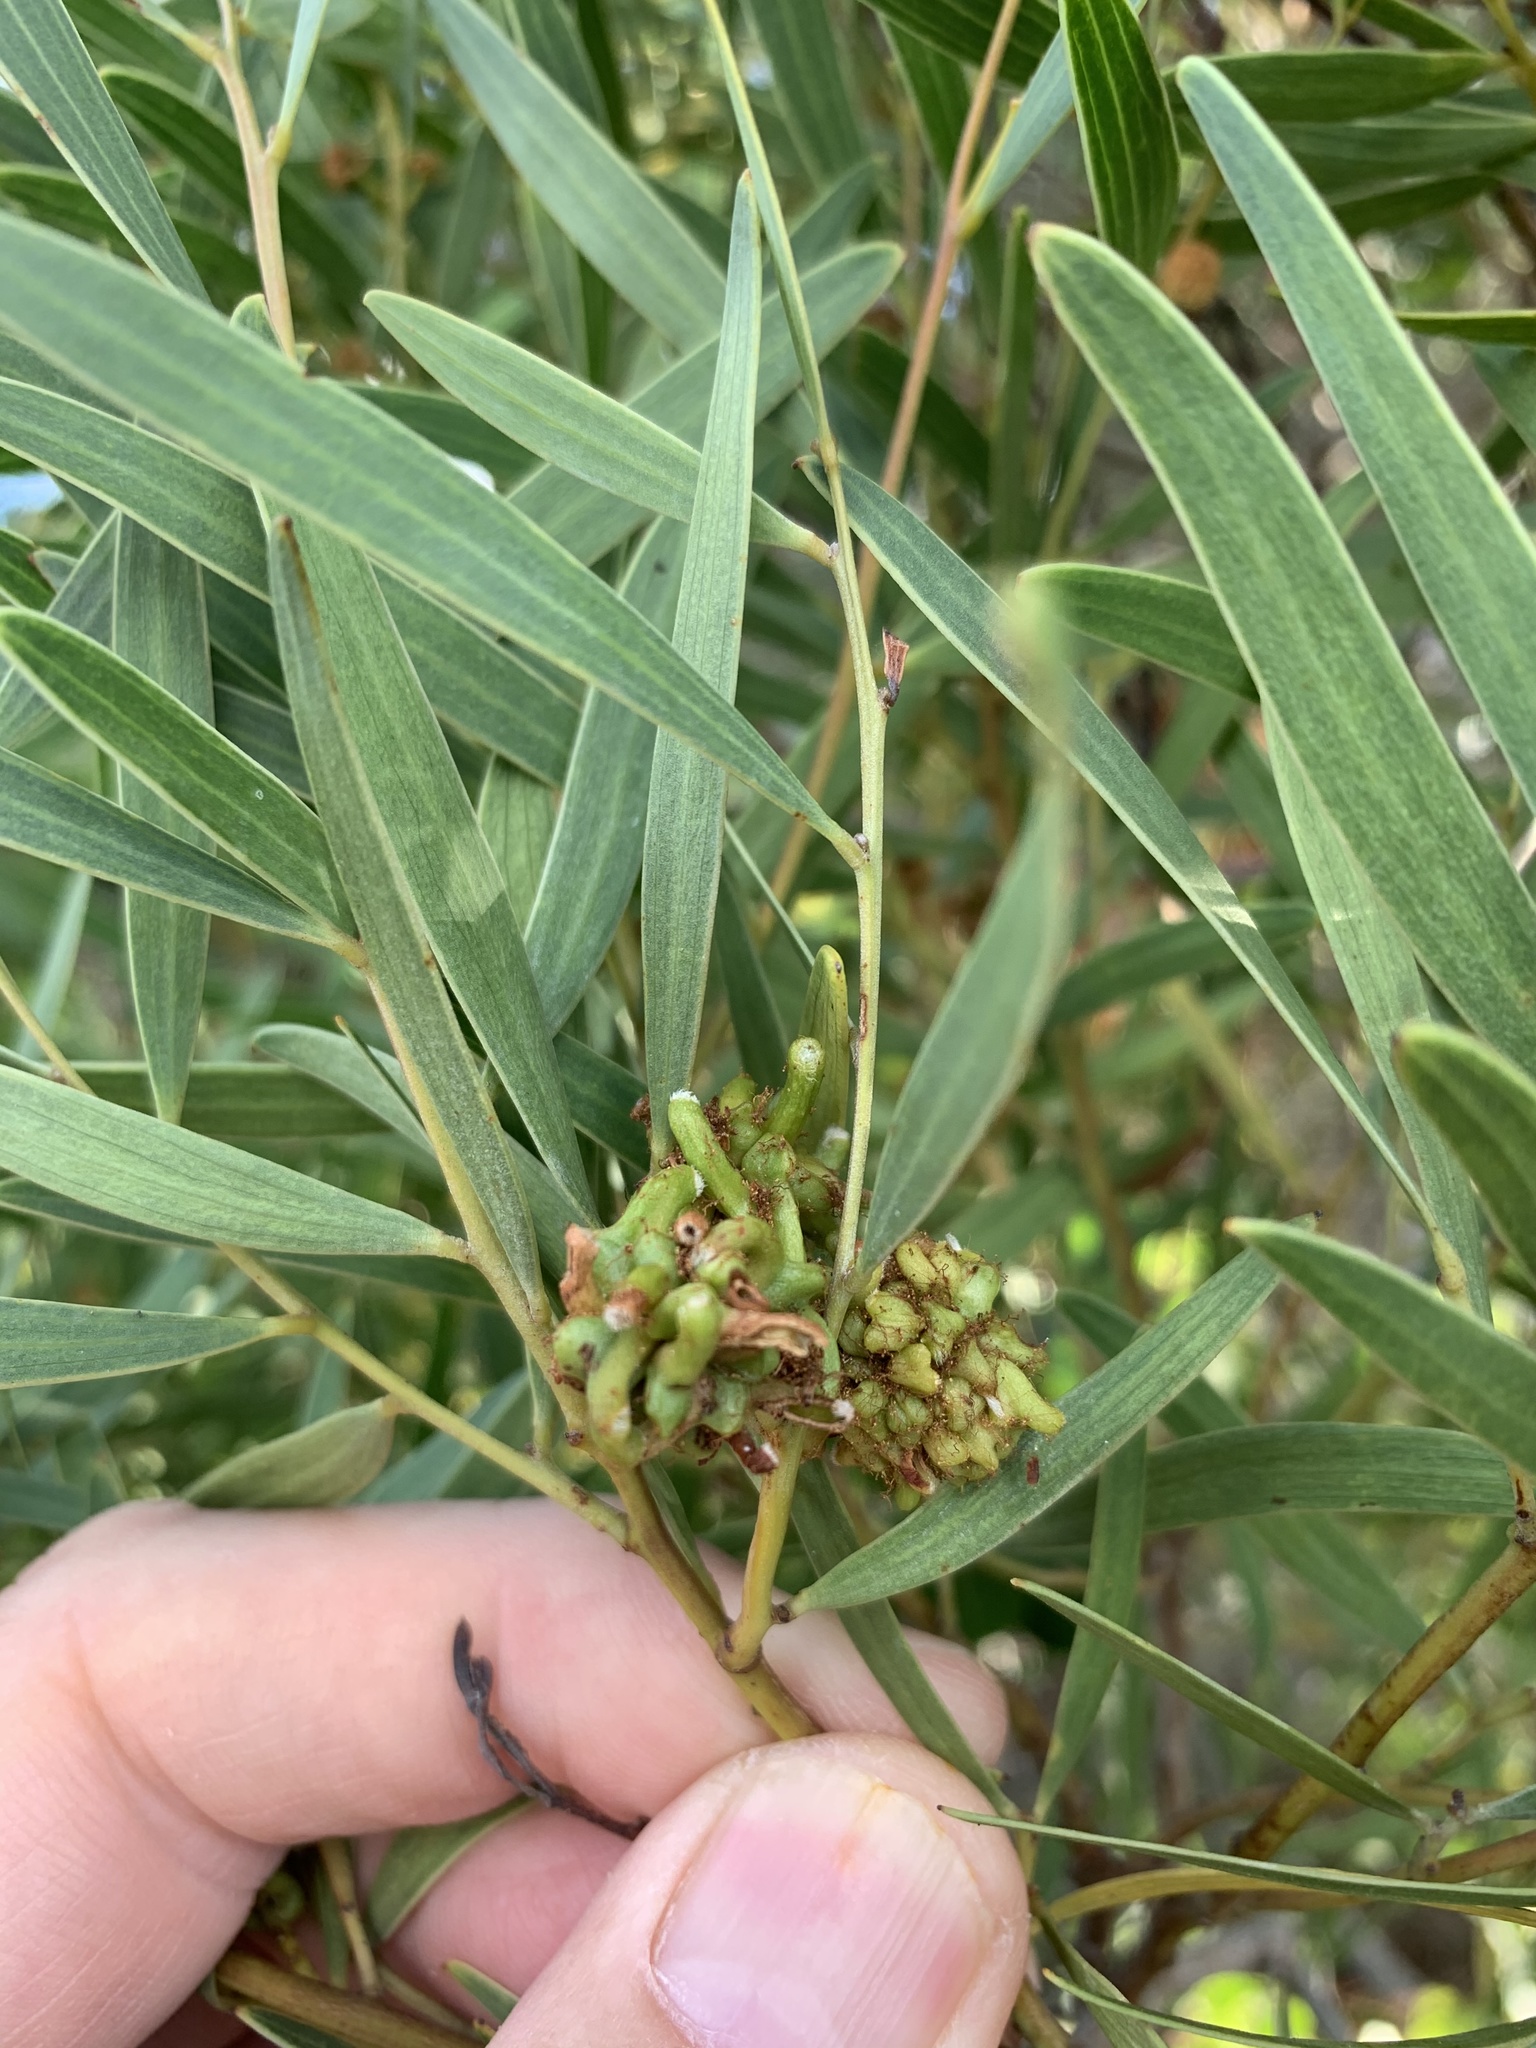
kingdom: Animalia
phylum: Arthropoda
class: Insecta
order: Diptera
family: Cecidomyiidae
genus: Dasineura
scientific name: Dasineura dielsi
